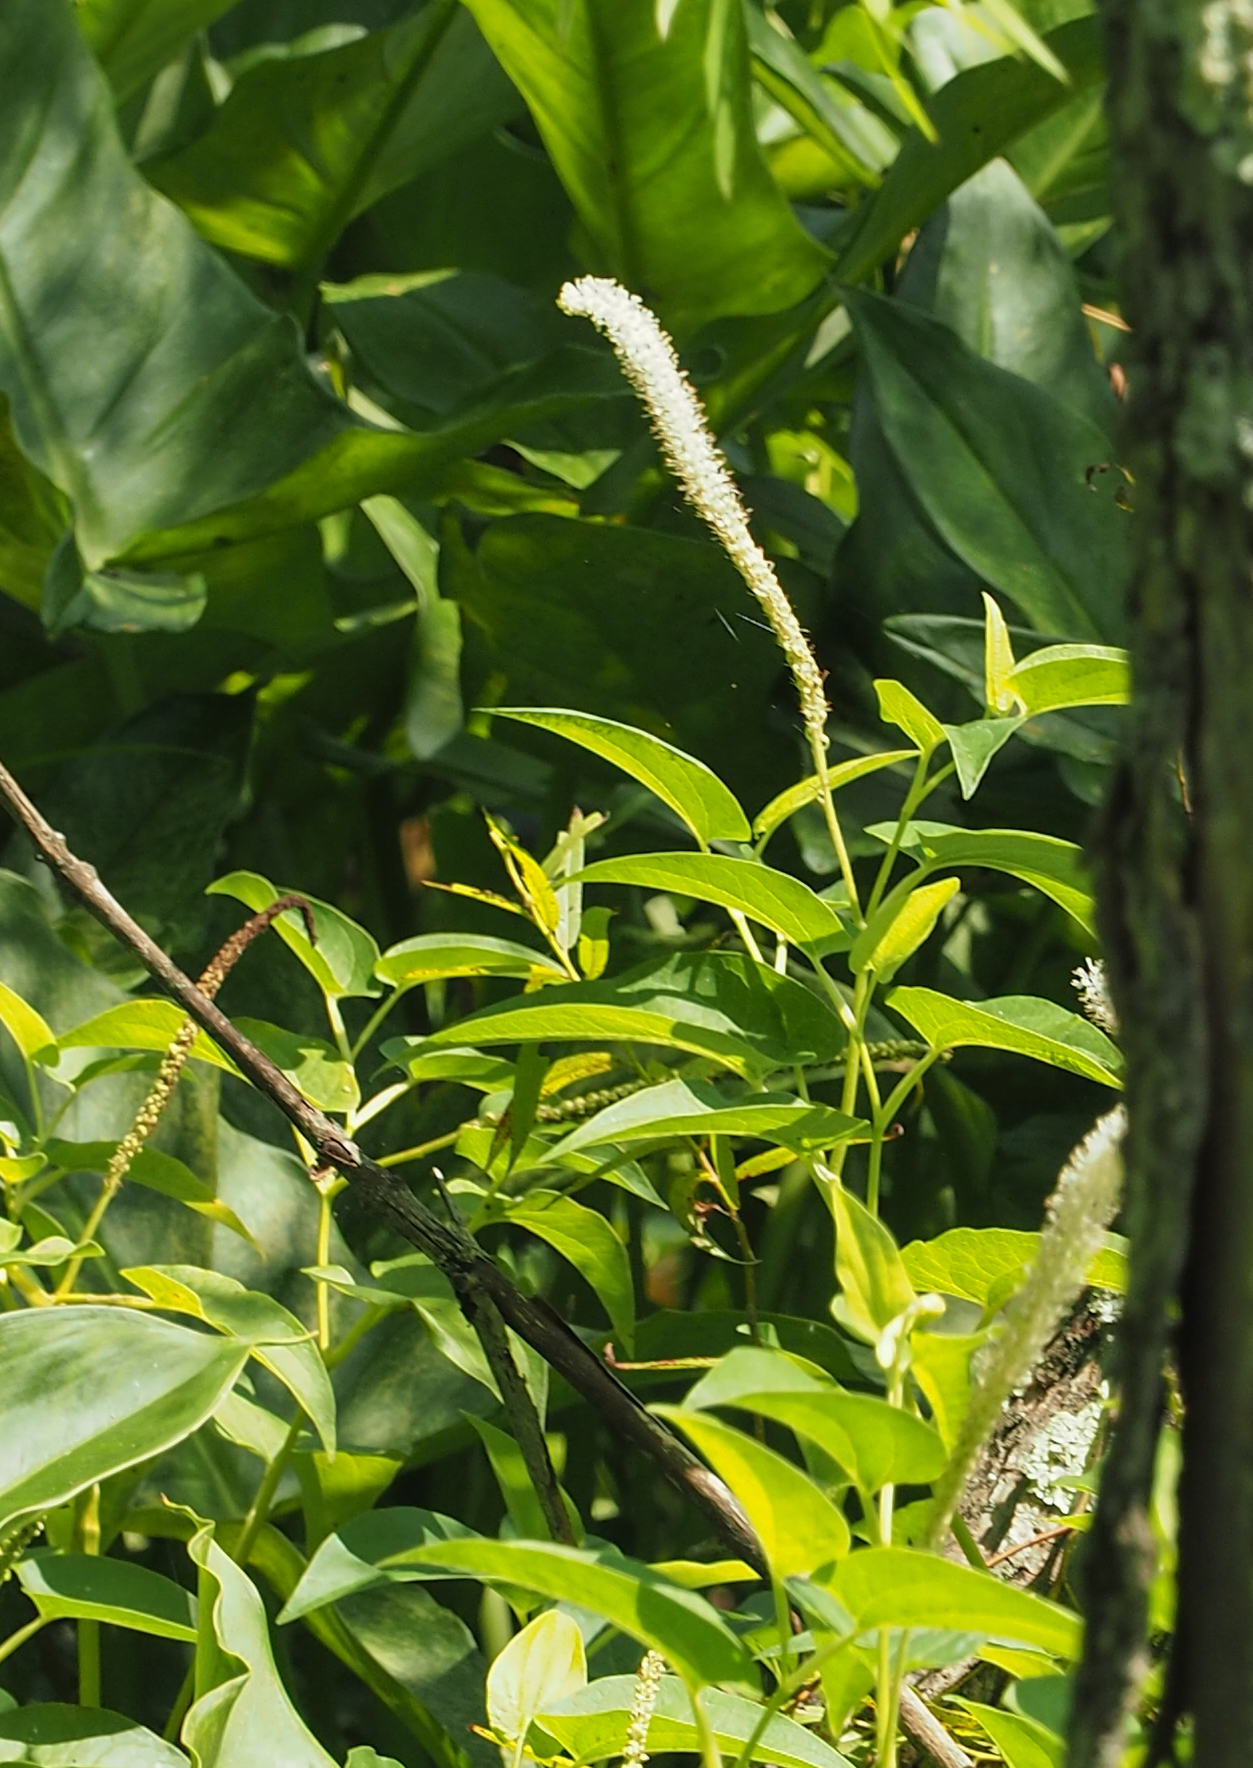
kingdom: Plantae
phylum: Tracheophyta
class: Magnoliopsida
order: Piperales
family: Saururaceae
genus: Saururus
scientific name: Saururus cernuus
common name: Lizard's-tail
